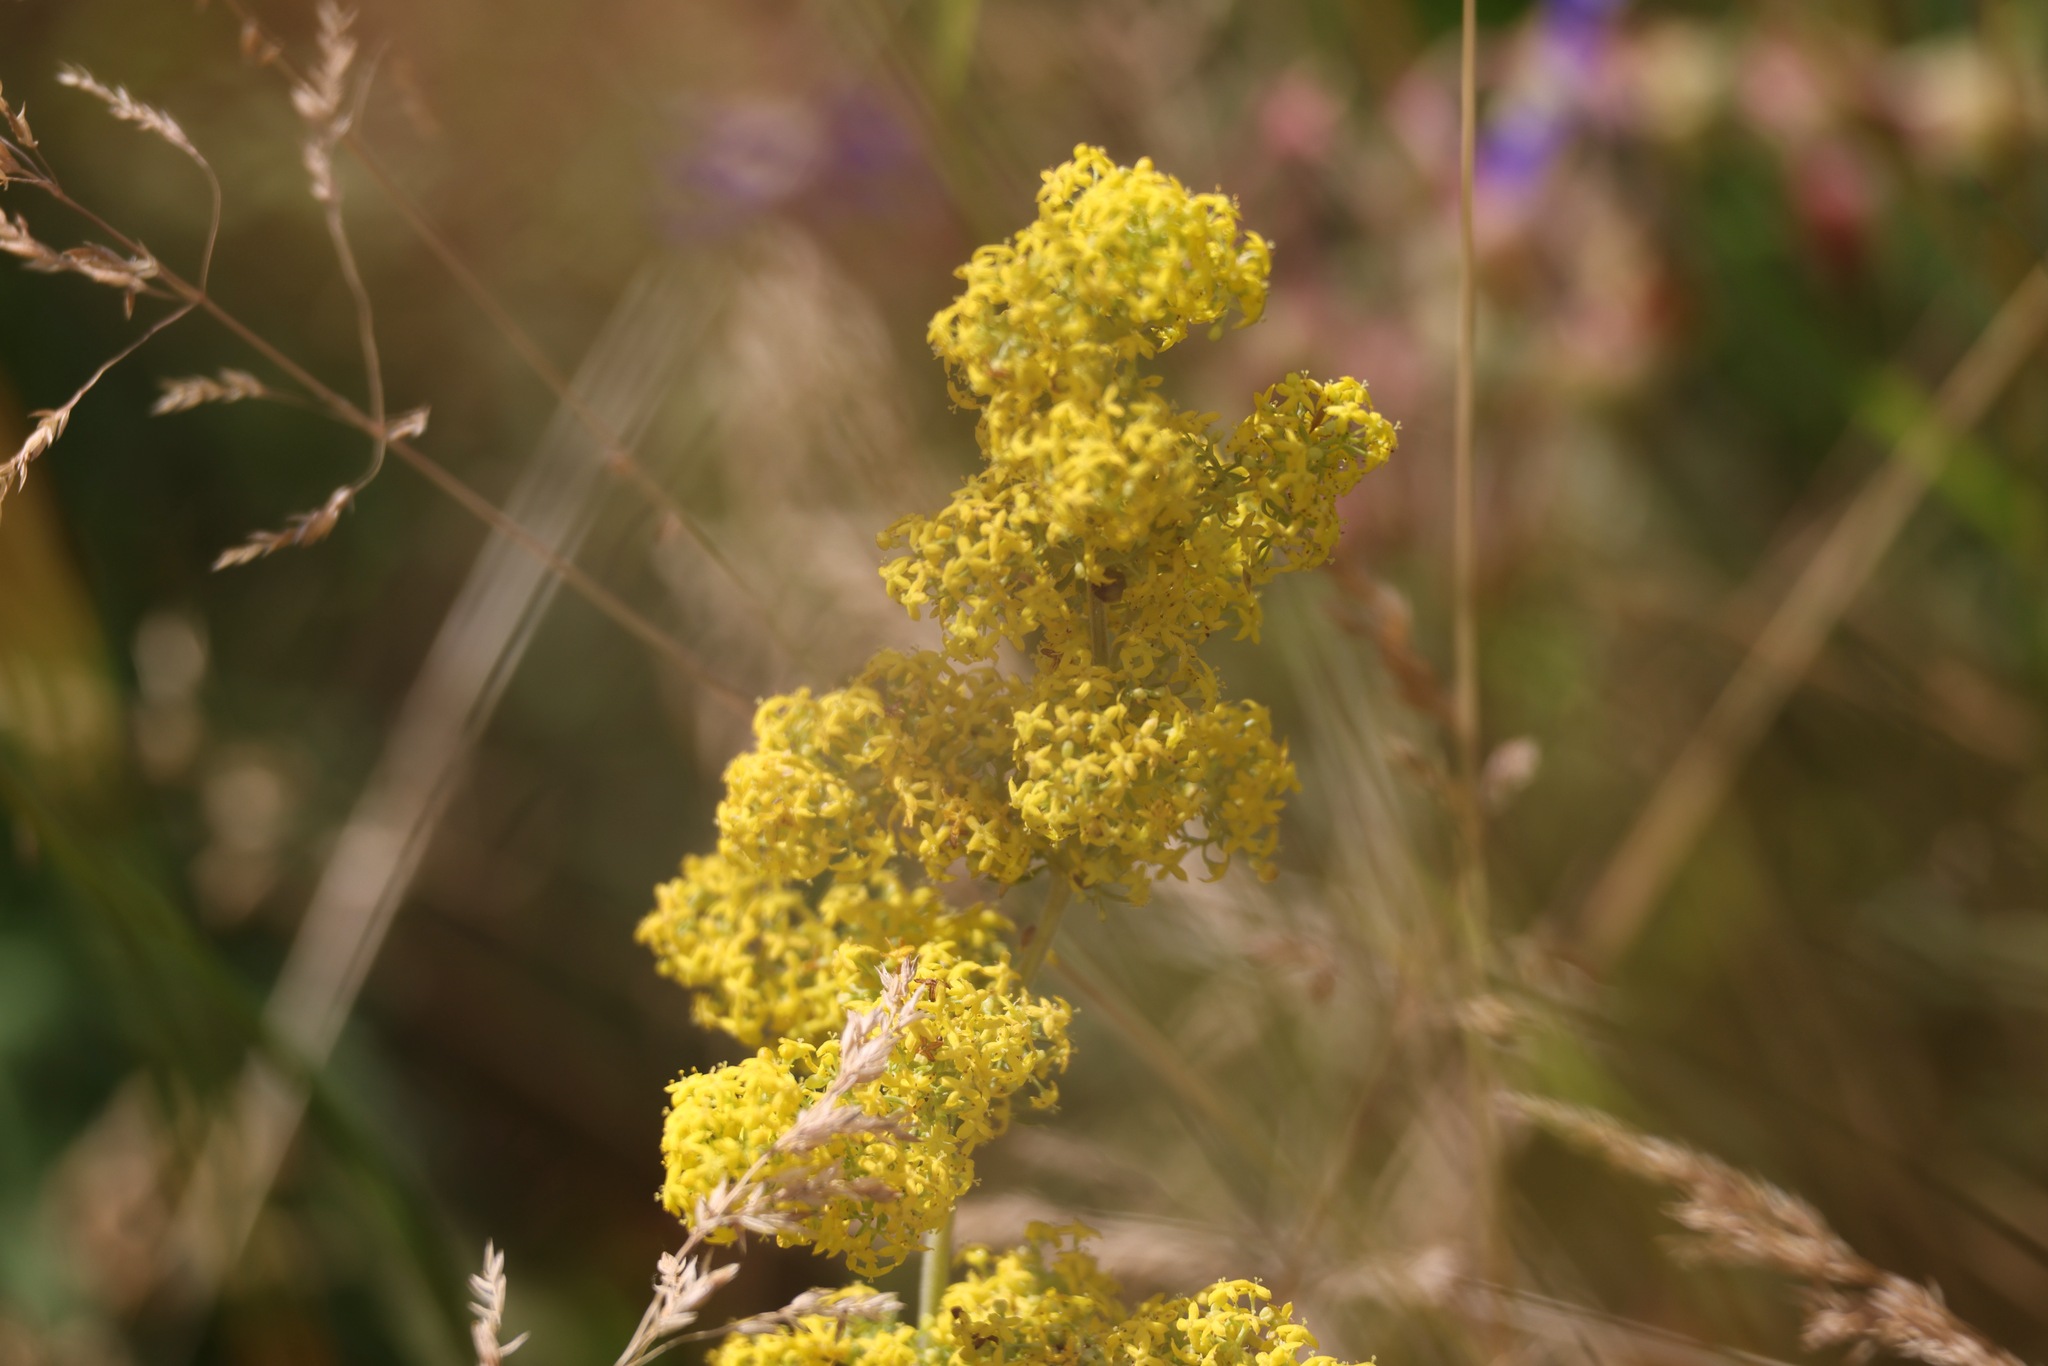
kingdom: Plantae
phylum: Tracheophyta
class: Magnoliopsida
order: Gentianales
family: Rubiaceae
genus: Galium
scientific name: Galium verum
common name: Lady's bedstraw
